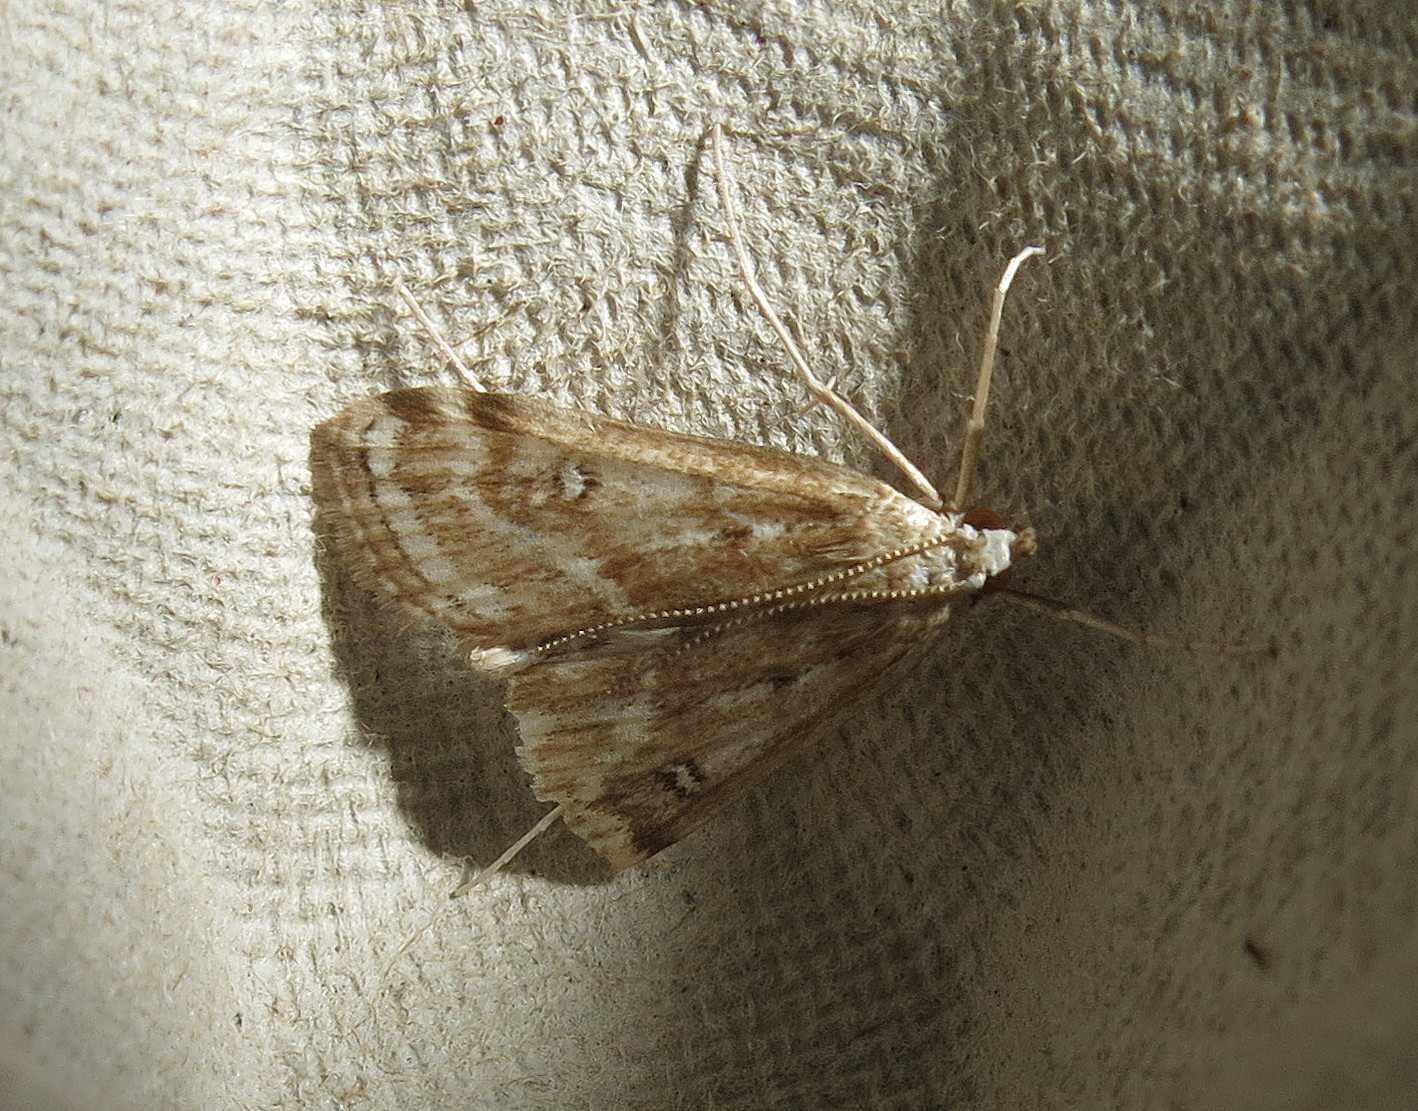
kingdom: Animalia
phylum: Arthropoda
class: Insecta
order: Lepidoptera
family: Crambidae
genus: Parapoynx
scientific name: Parapoynx stratiotata
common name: Ringed china-mark
